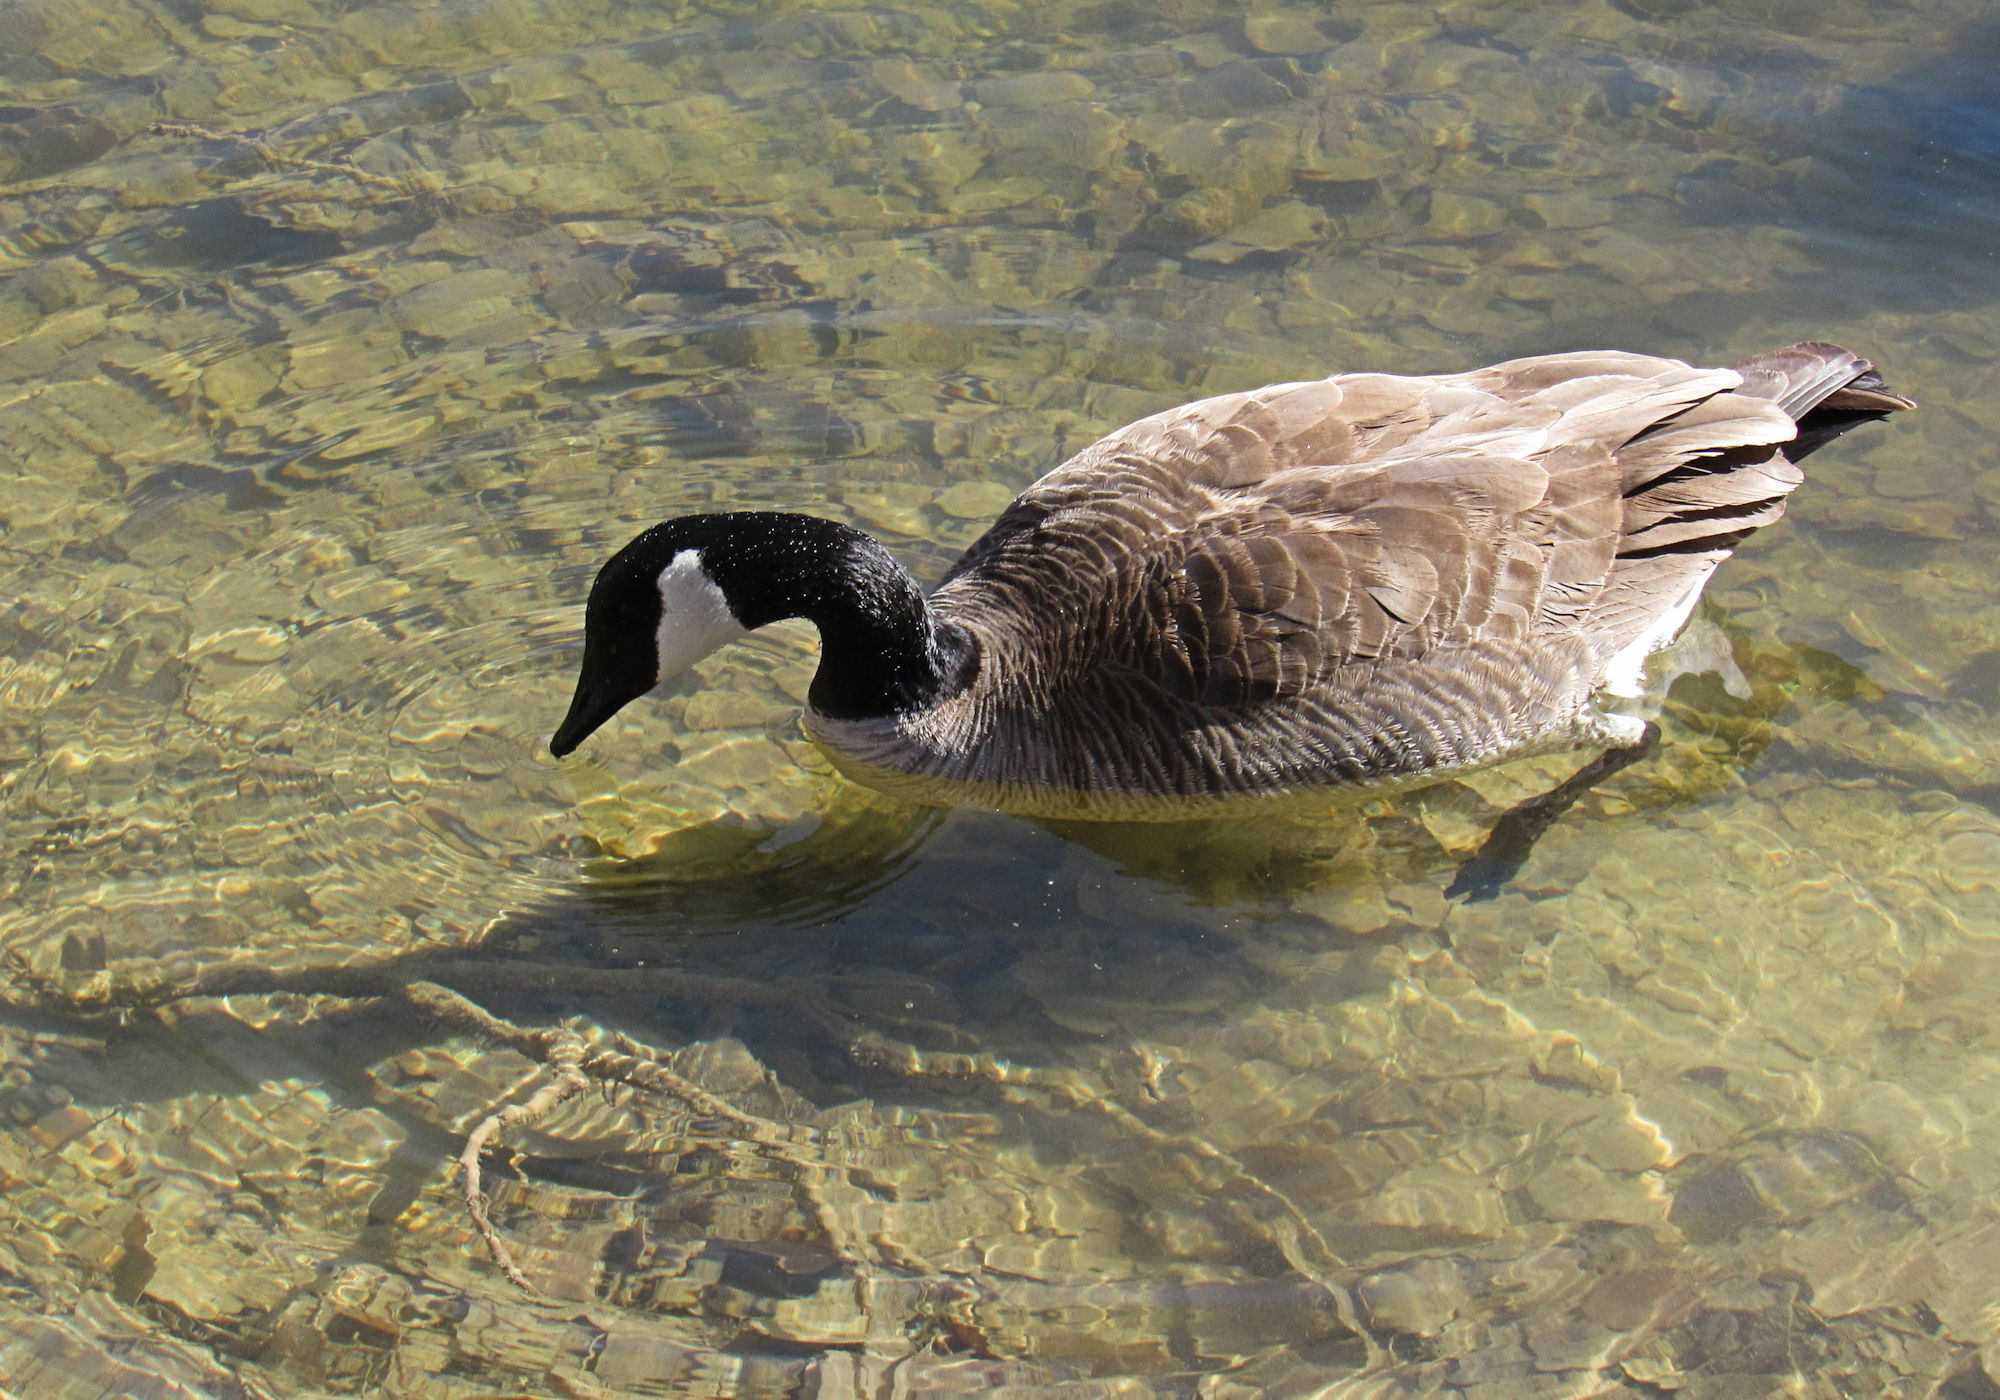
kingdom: Animalia
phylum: Chordata
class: Aves
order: Anseriformes
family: Anatidae
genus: Branta
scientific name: Branta canadensis
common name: Canada goose
